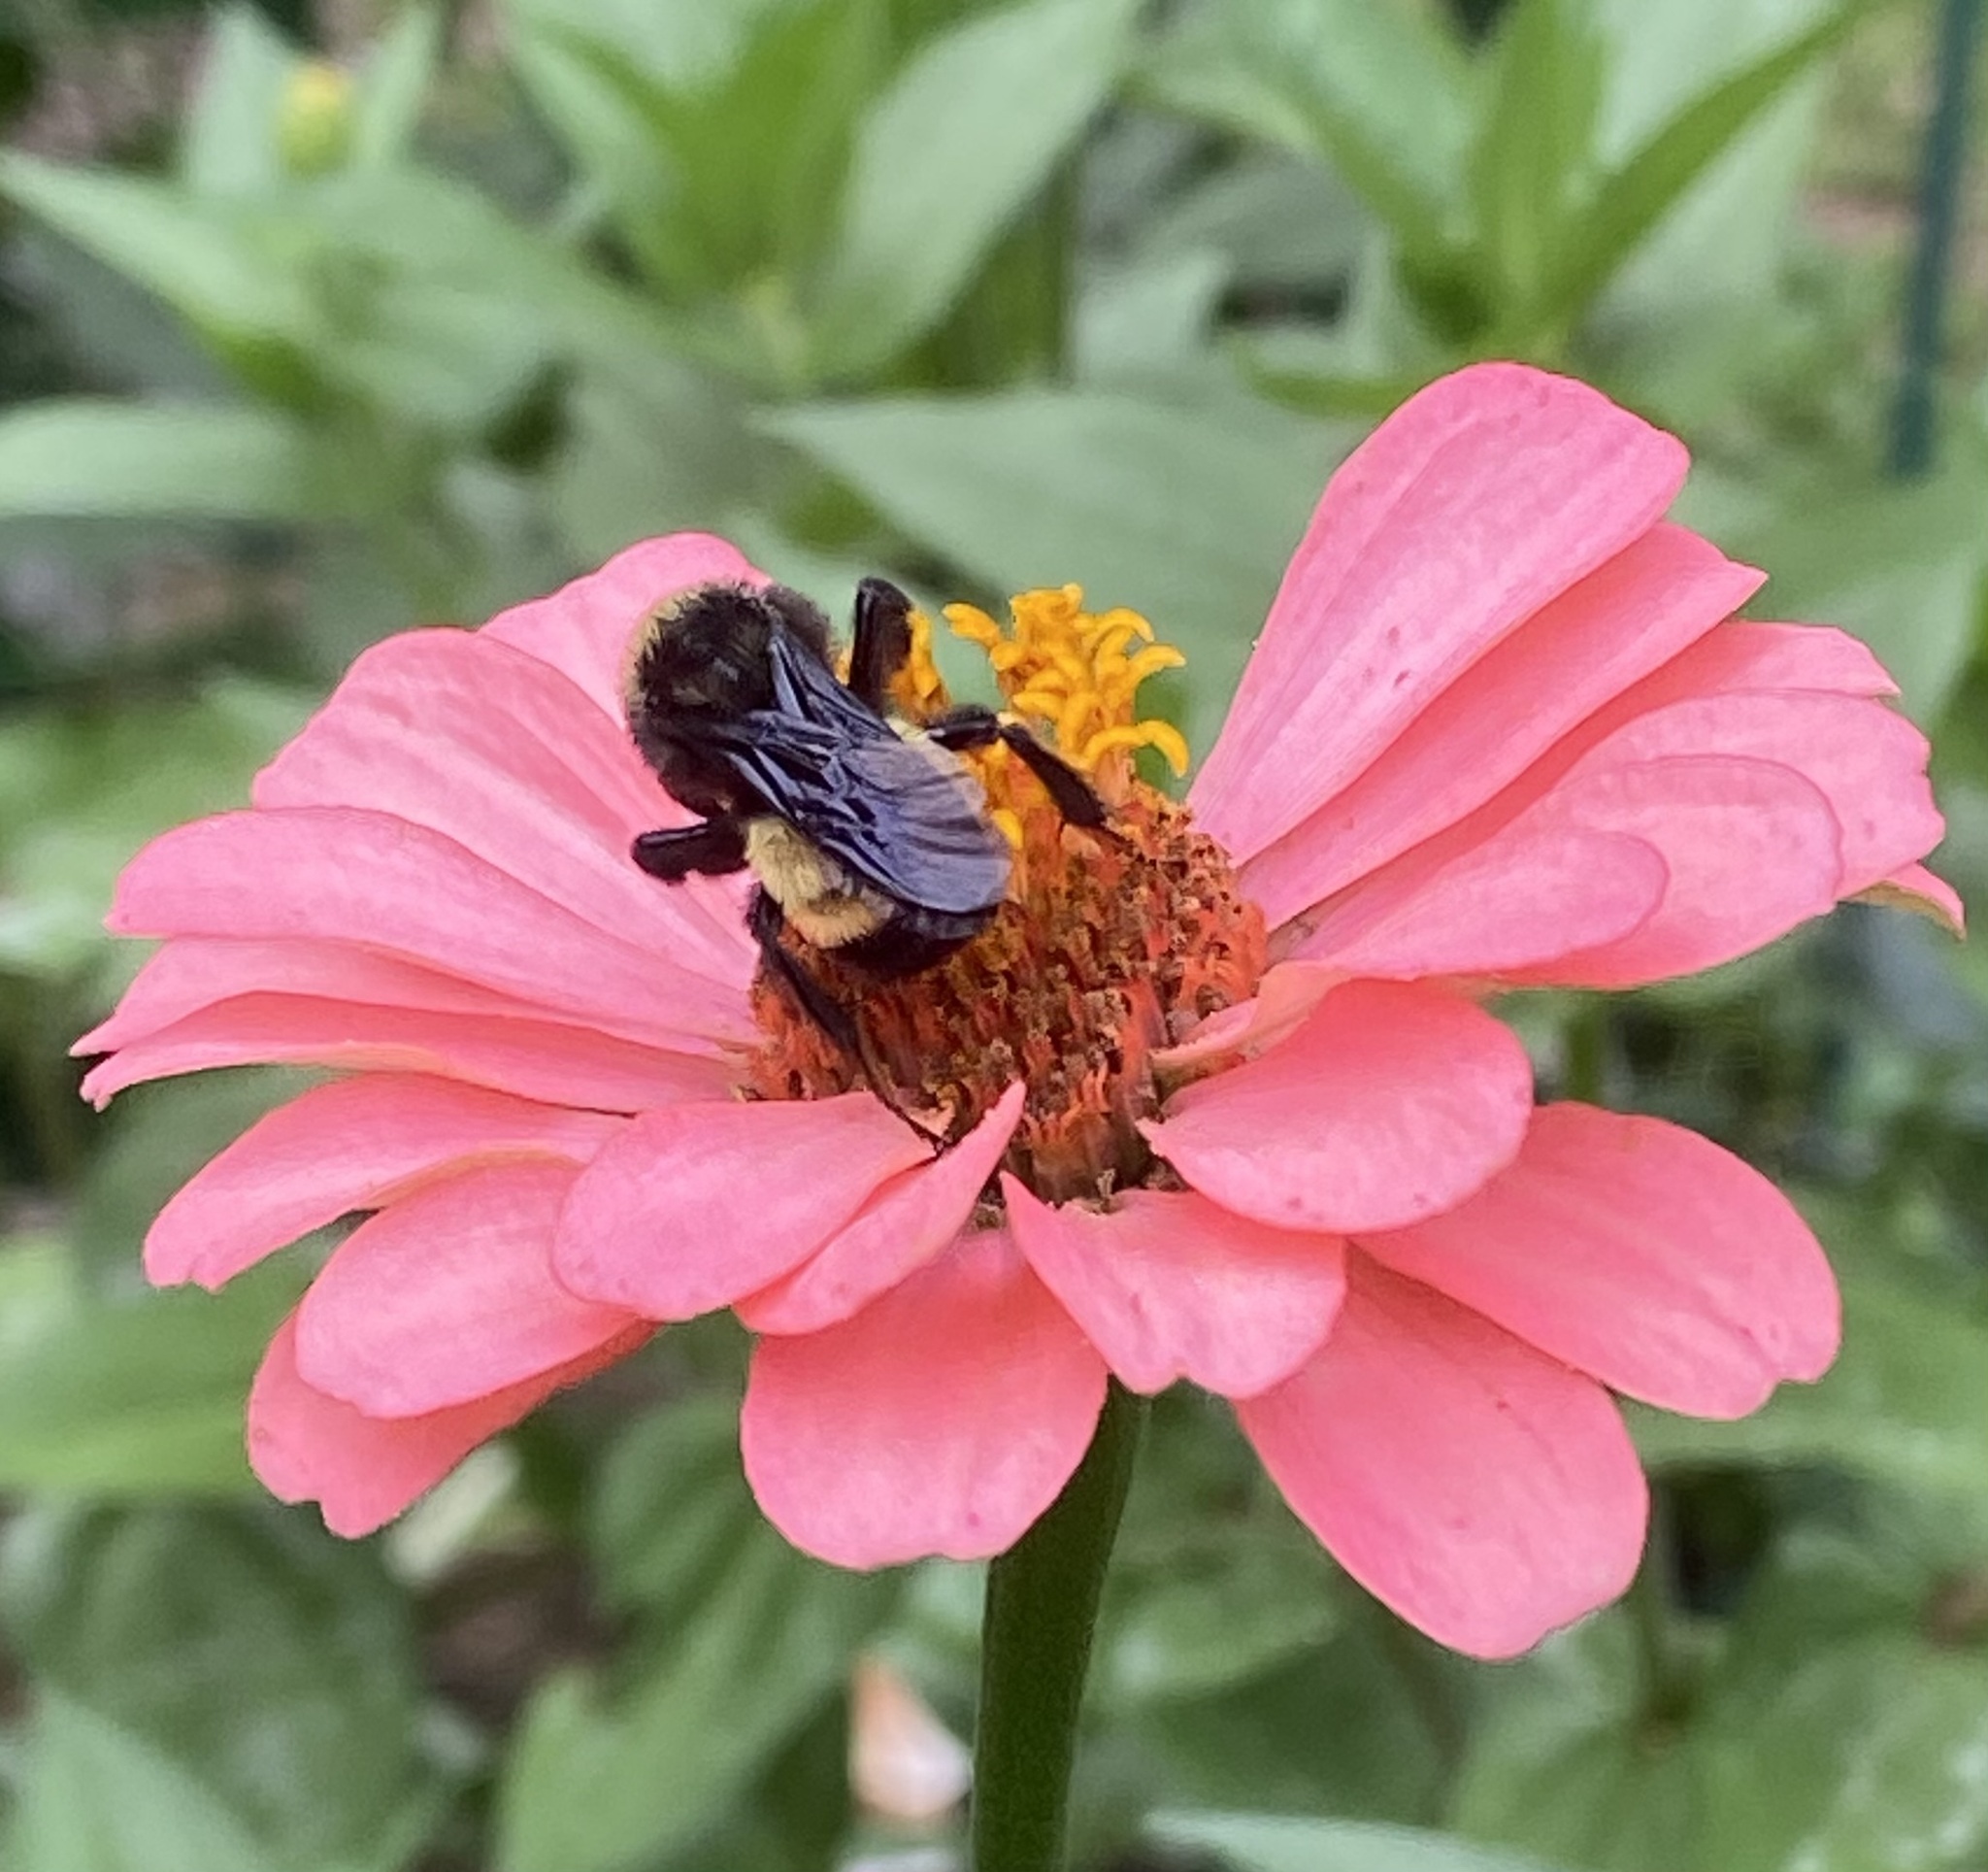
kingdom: Animalia
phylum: Arthropoda
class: Insecta
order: Hymenoptera
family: Apidae
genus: Bombus
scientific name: Bombus pensylvanicus
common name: Bumble bee
